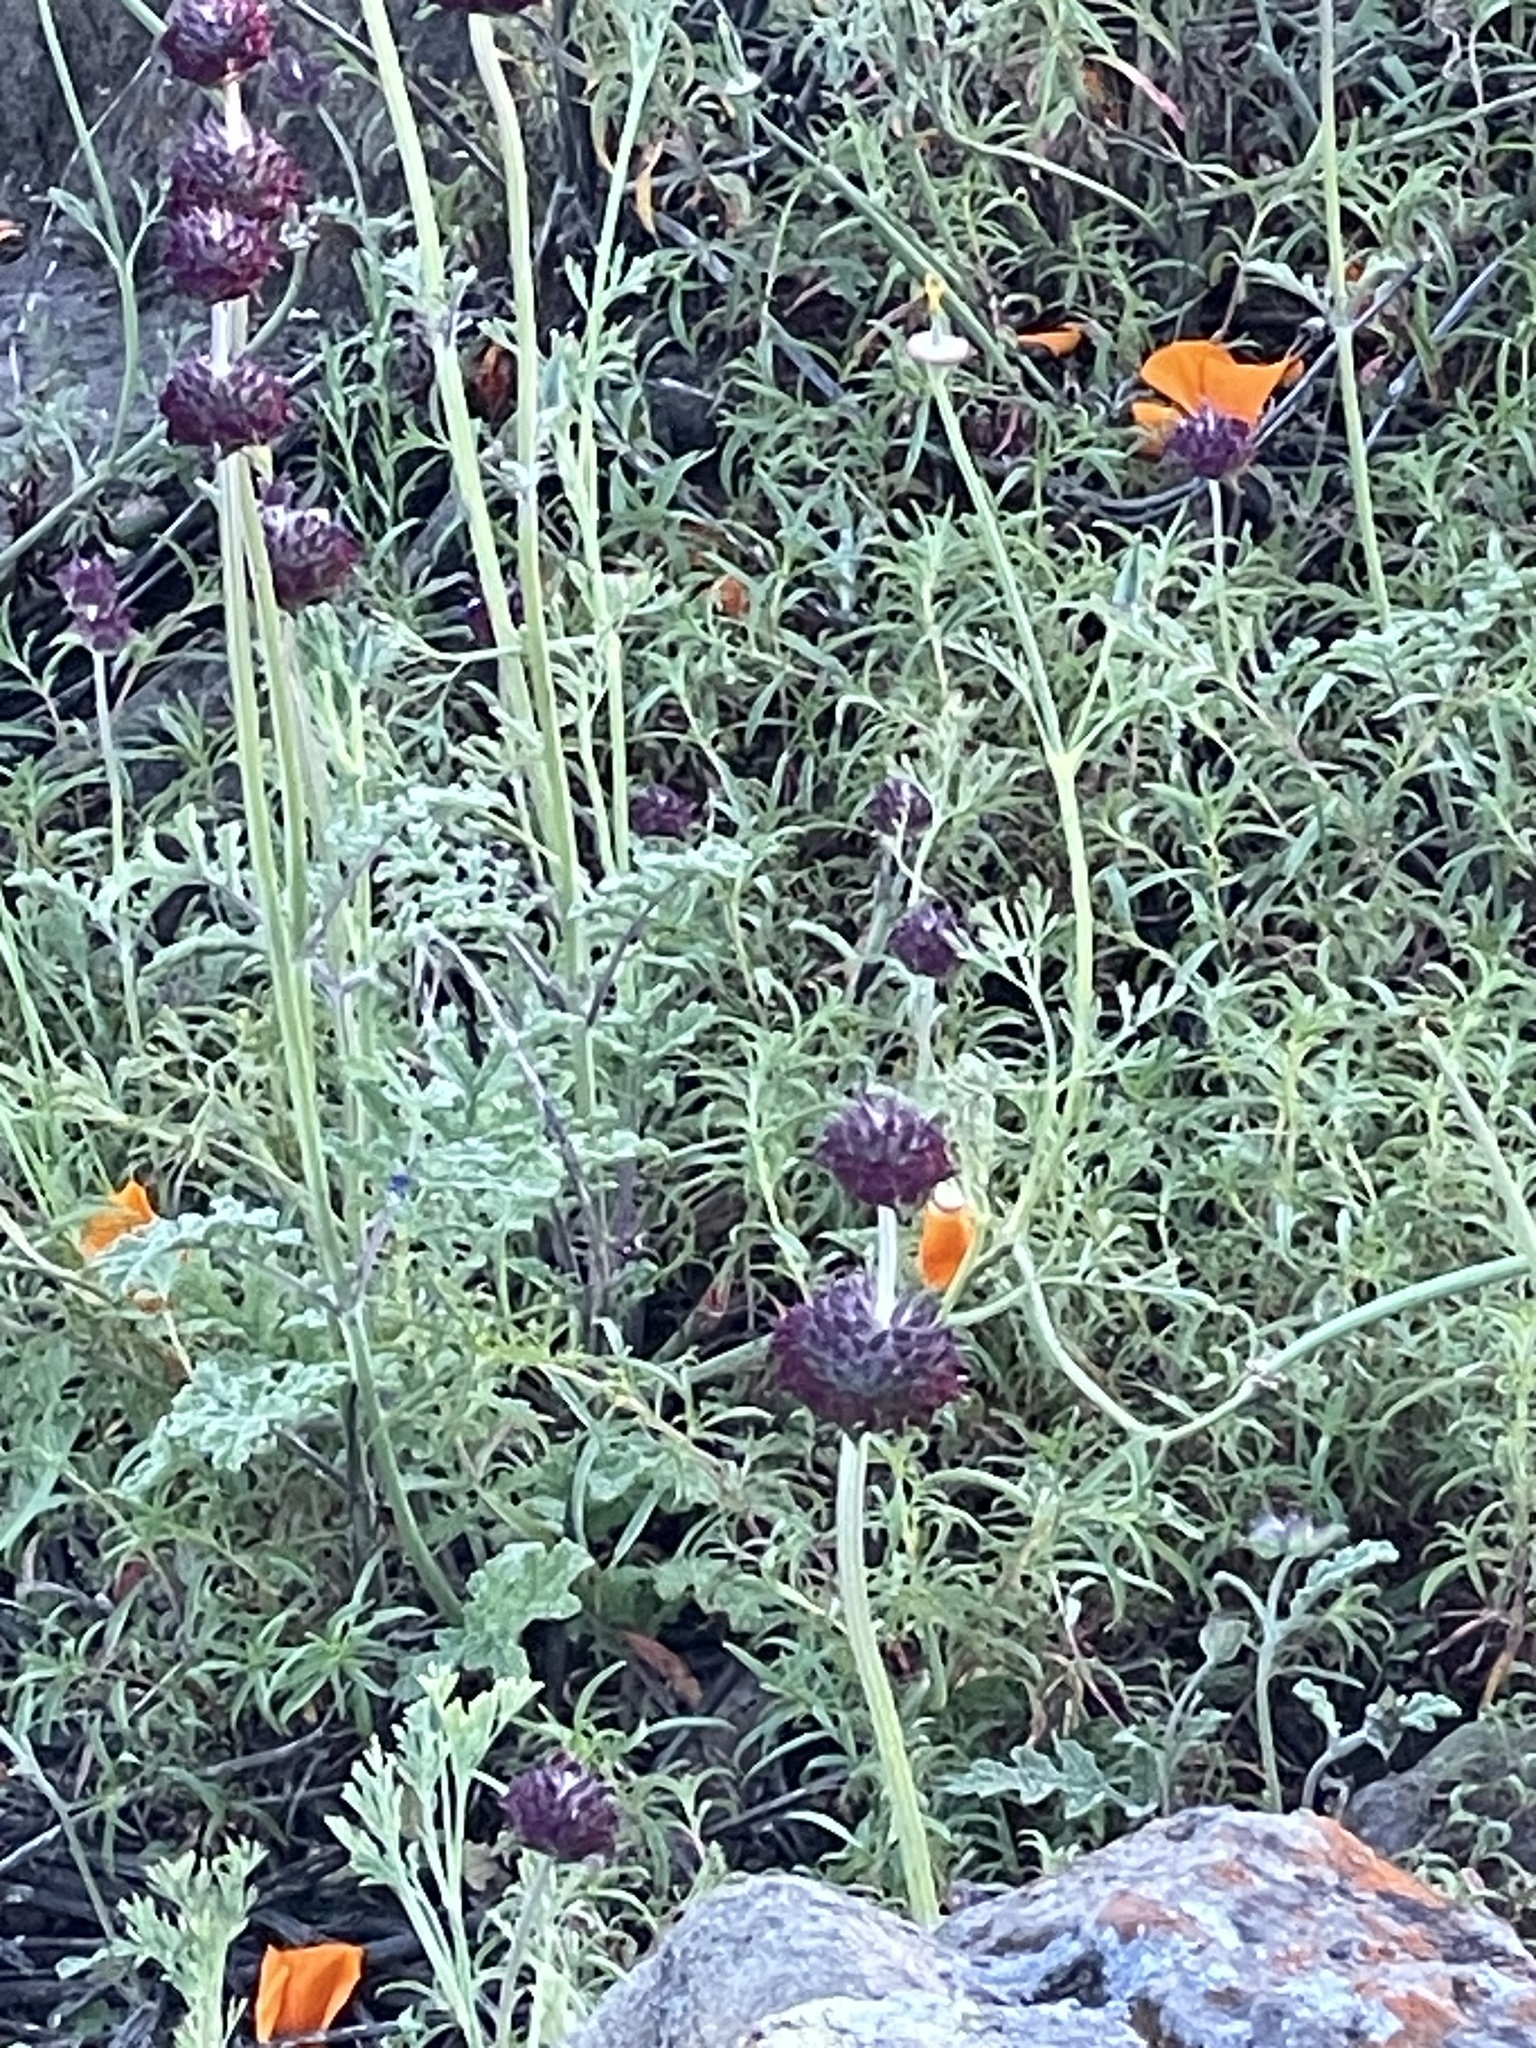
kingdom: Plantae
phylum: Tracheophyta
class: Magnoliopsida
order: Lamiales
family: Lamiaceae
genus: Salvia
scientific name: Salvia columbariae
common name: Chia
